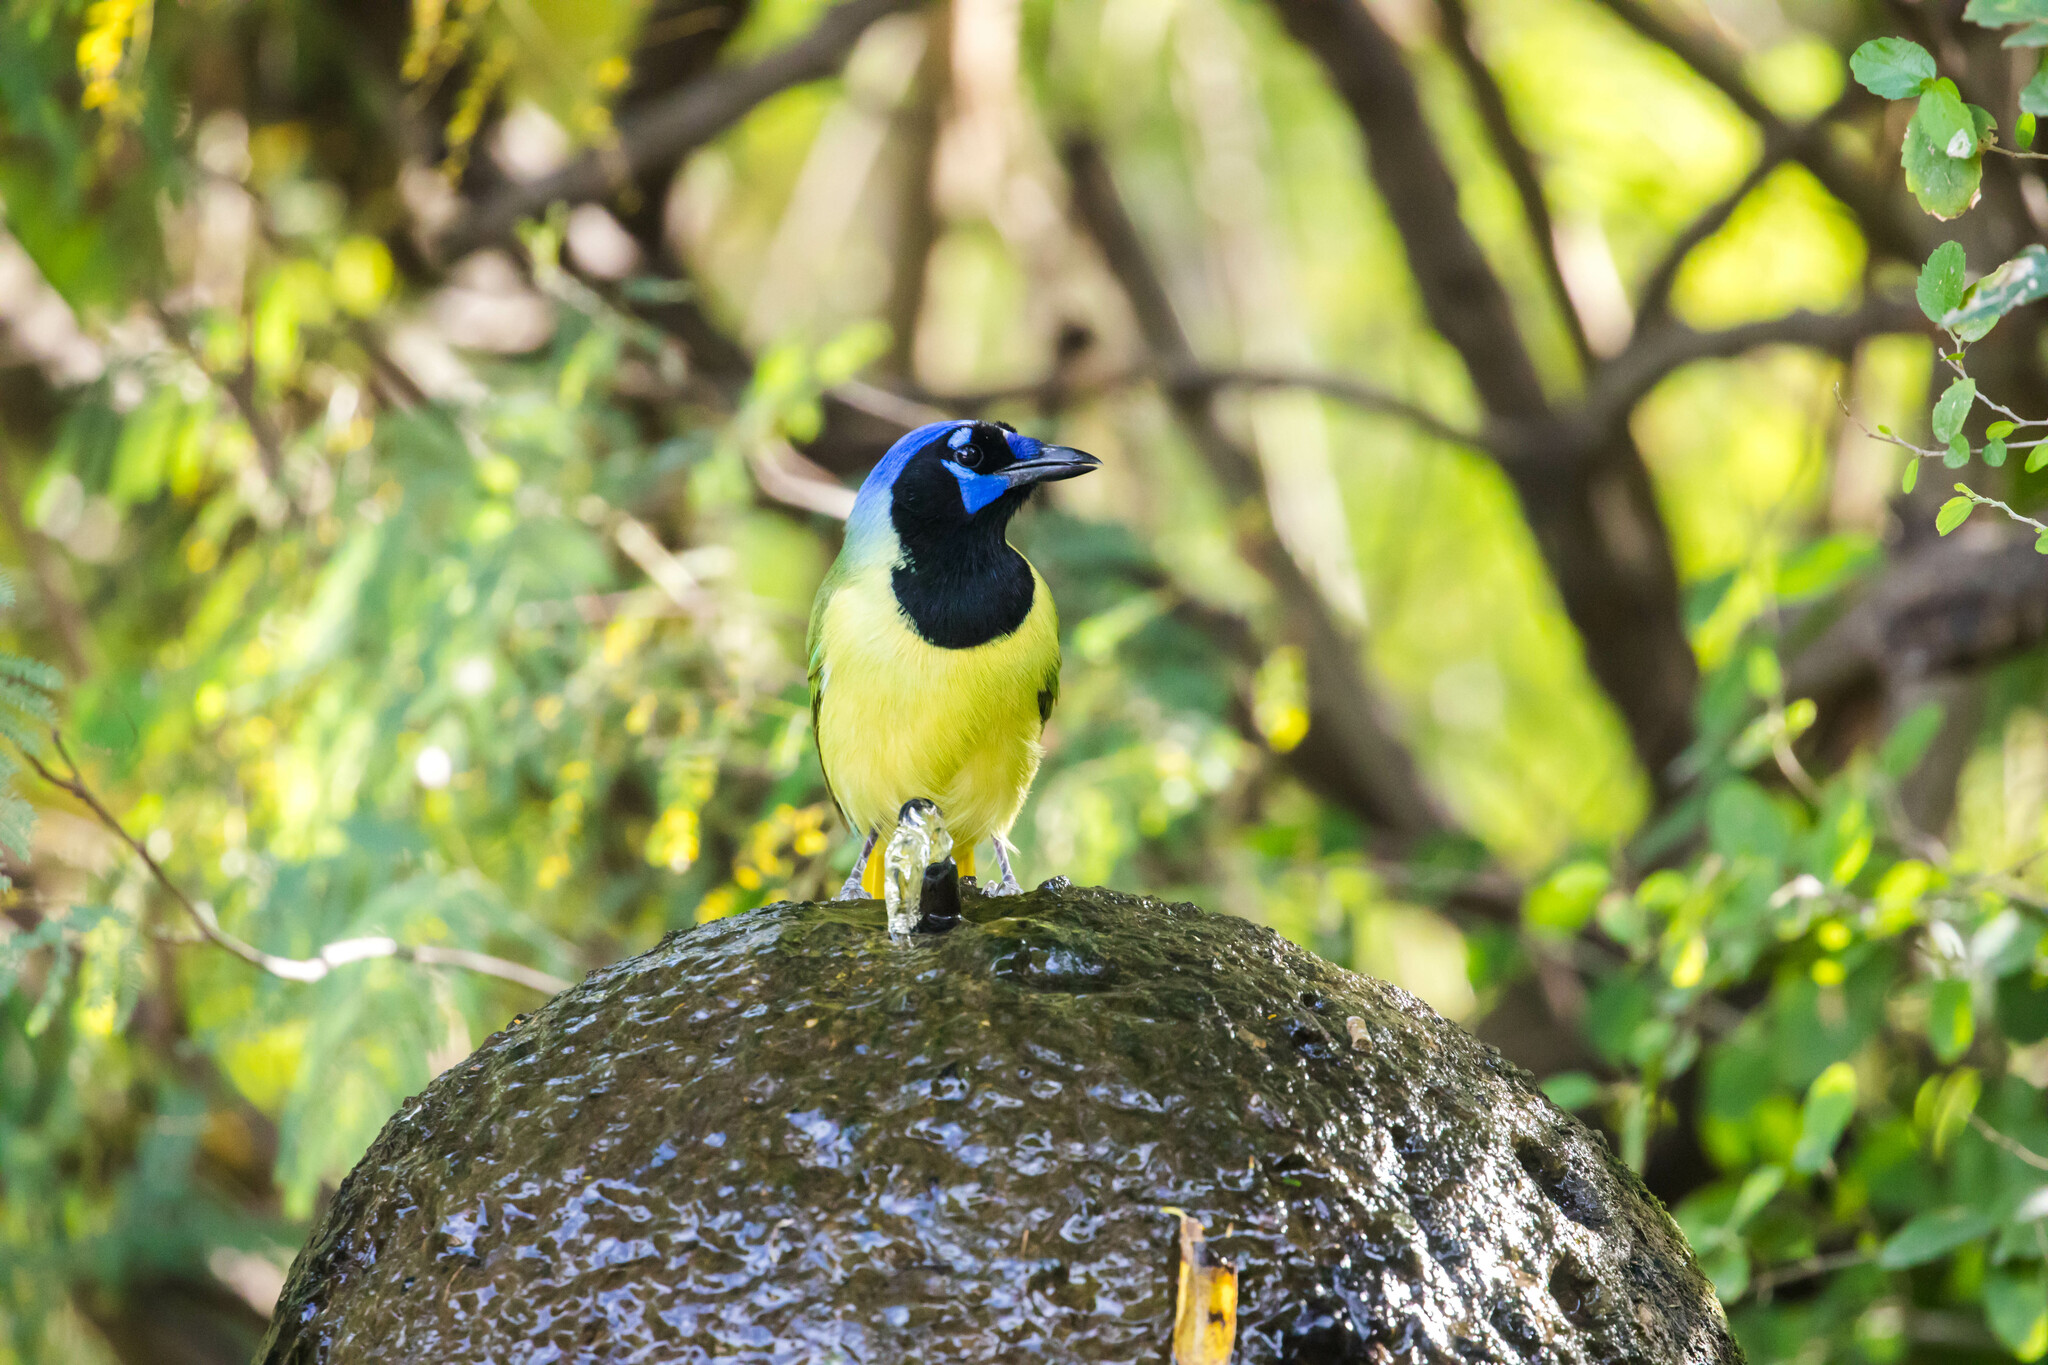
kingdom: Animalia
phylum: Chordata
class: Aves
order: Passeriformes
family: Corvidae
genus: Cyanocorax
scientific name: Cyanocorax yncas
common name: Green jay
